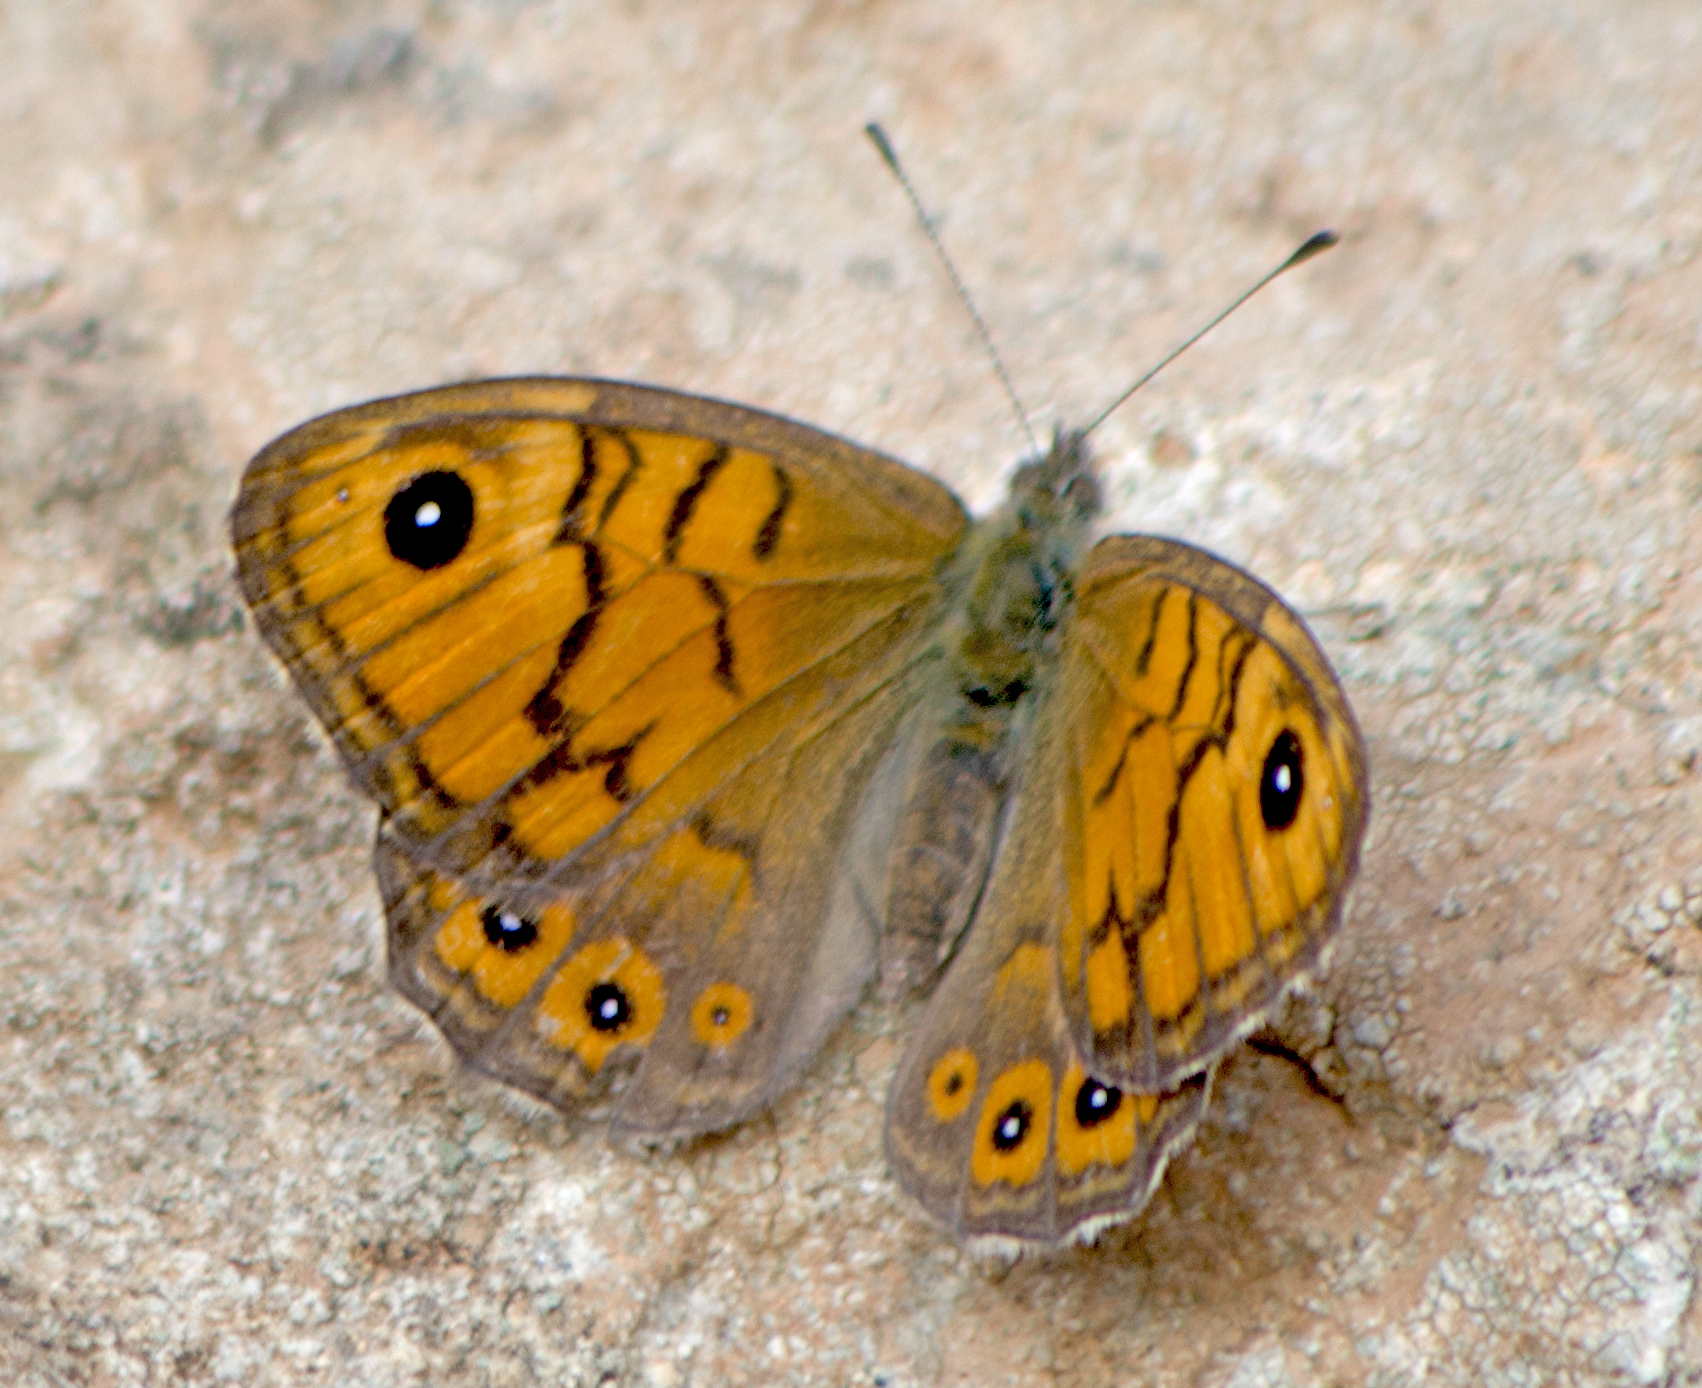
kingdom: Animalia
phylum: Arthropoda
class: Insecta
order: Lepidoptera
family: Nymphalidae
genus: Pararge
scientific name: Pararge Lasiommata megera
